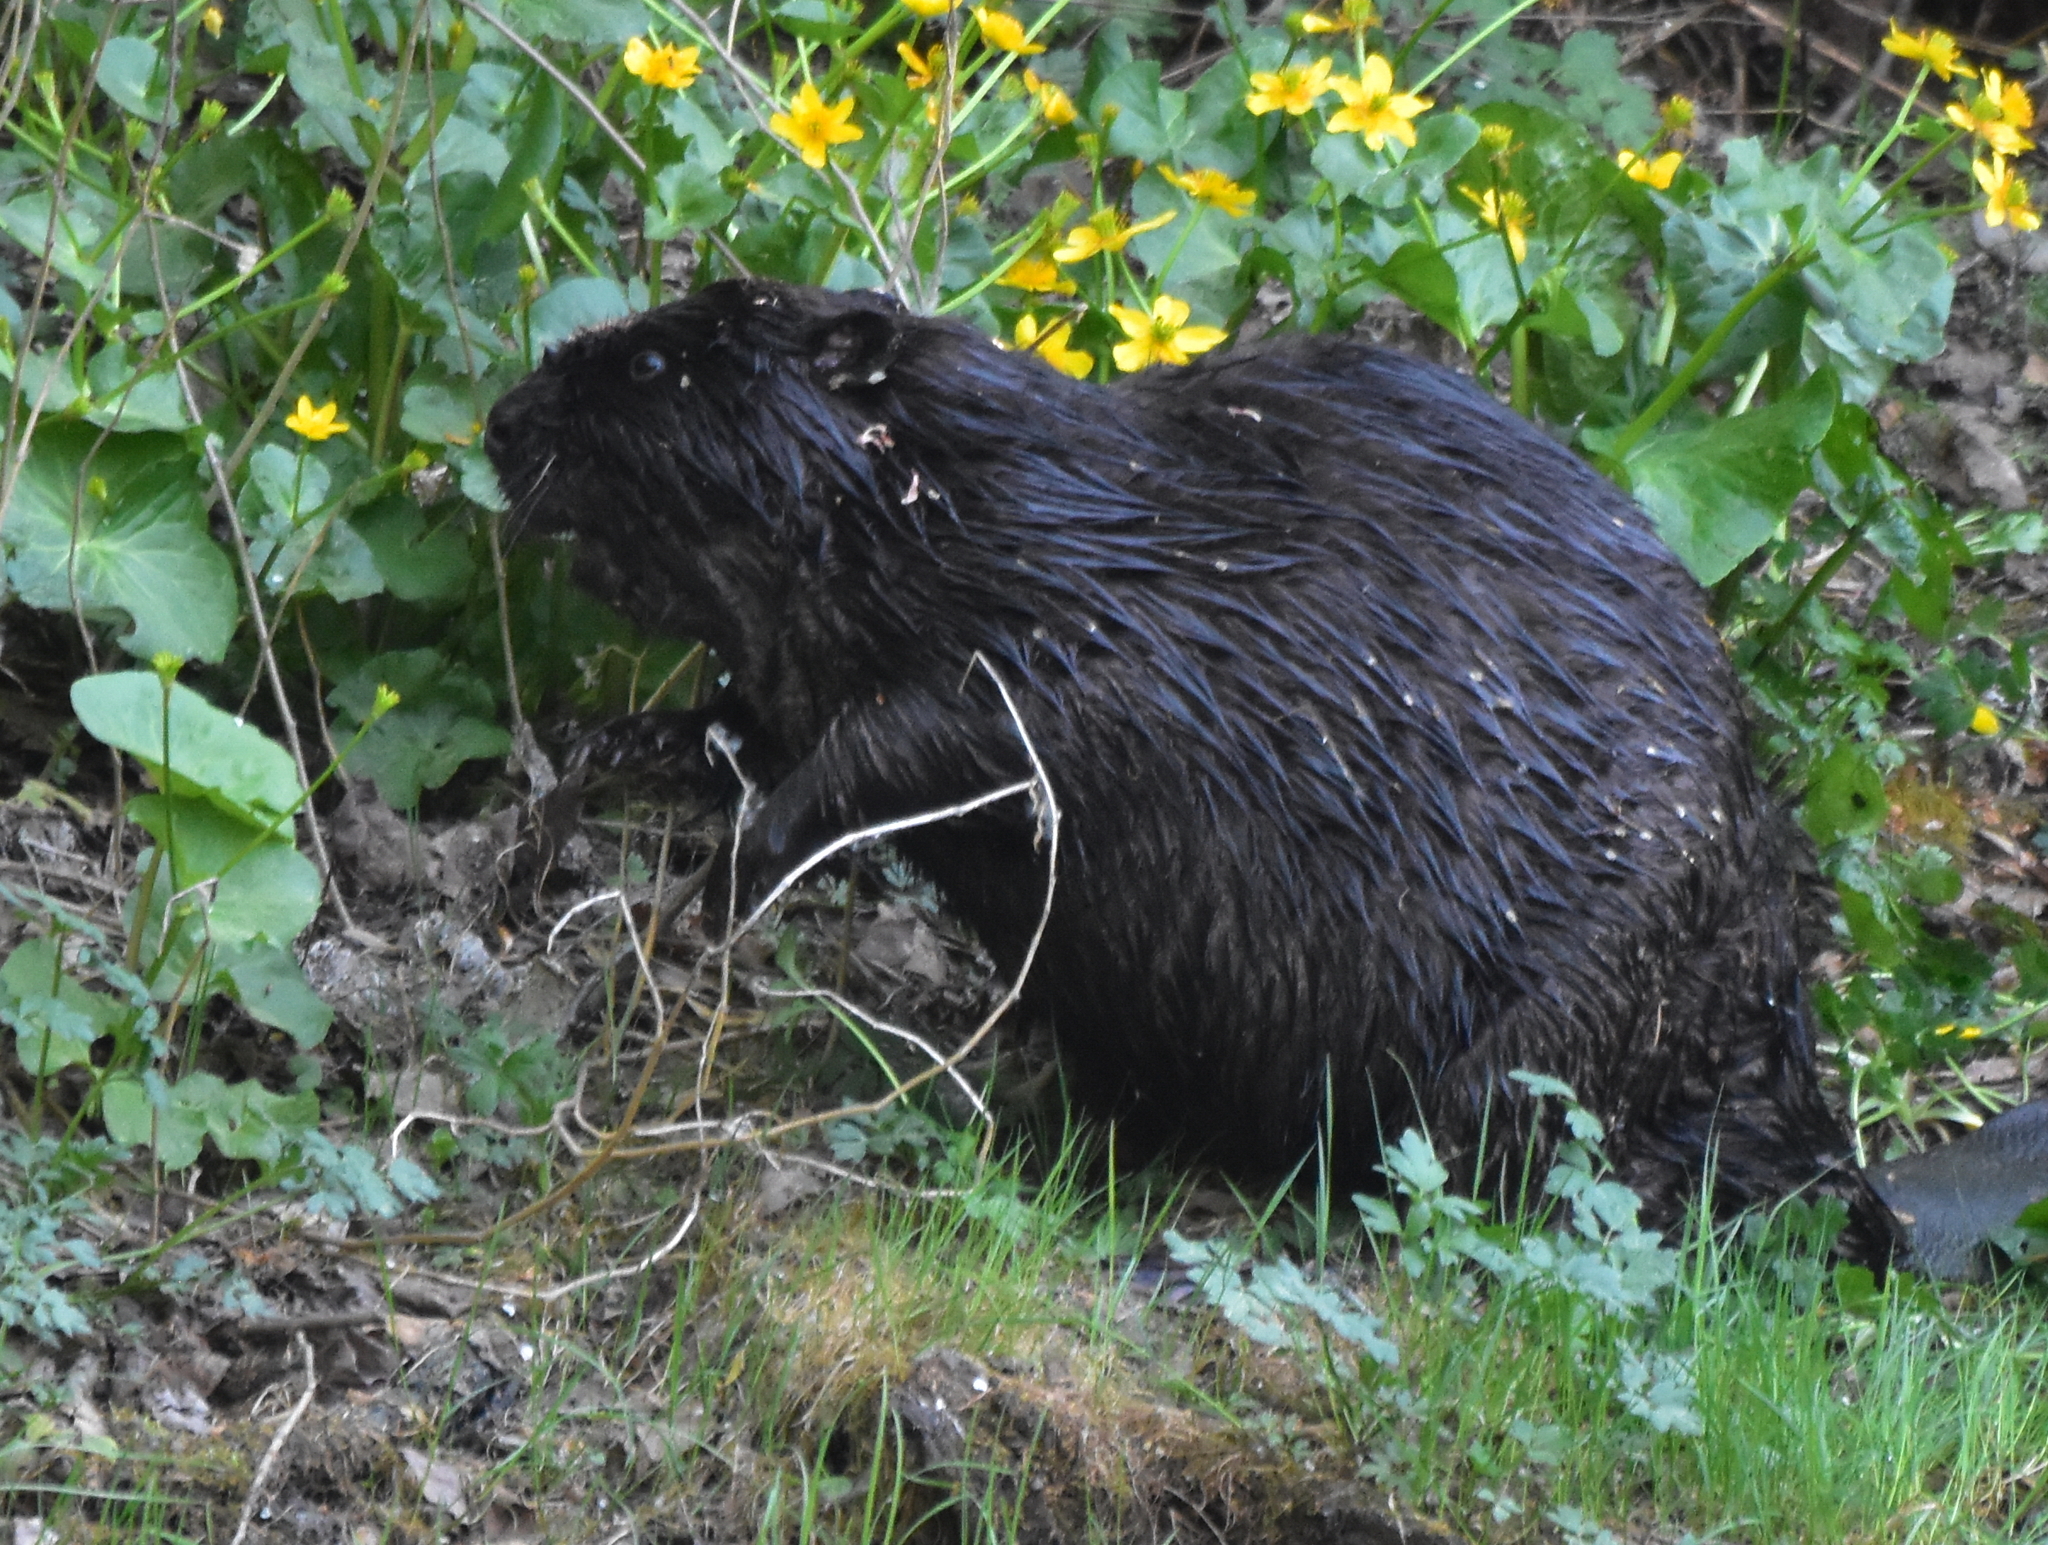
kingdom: Animalia
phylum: Chordata
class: Mammalia
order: Rodentia
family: Castoridae
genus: Castor
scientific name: Castor fiber
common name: Eurasian beaver
